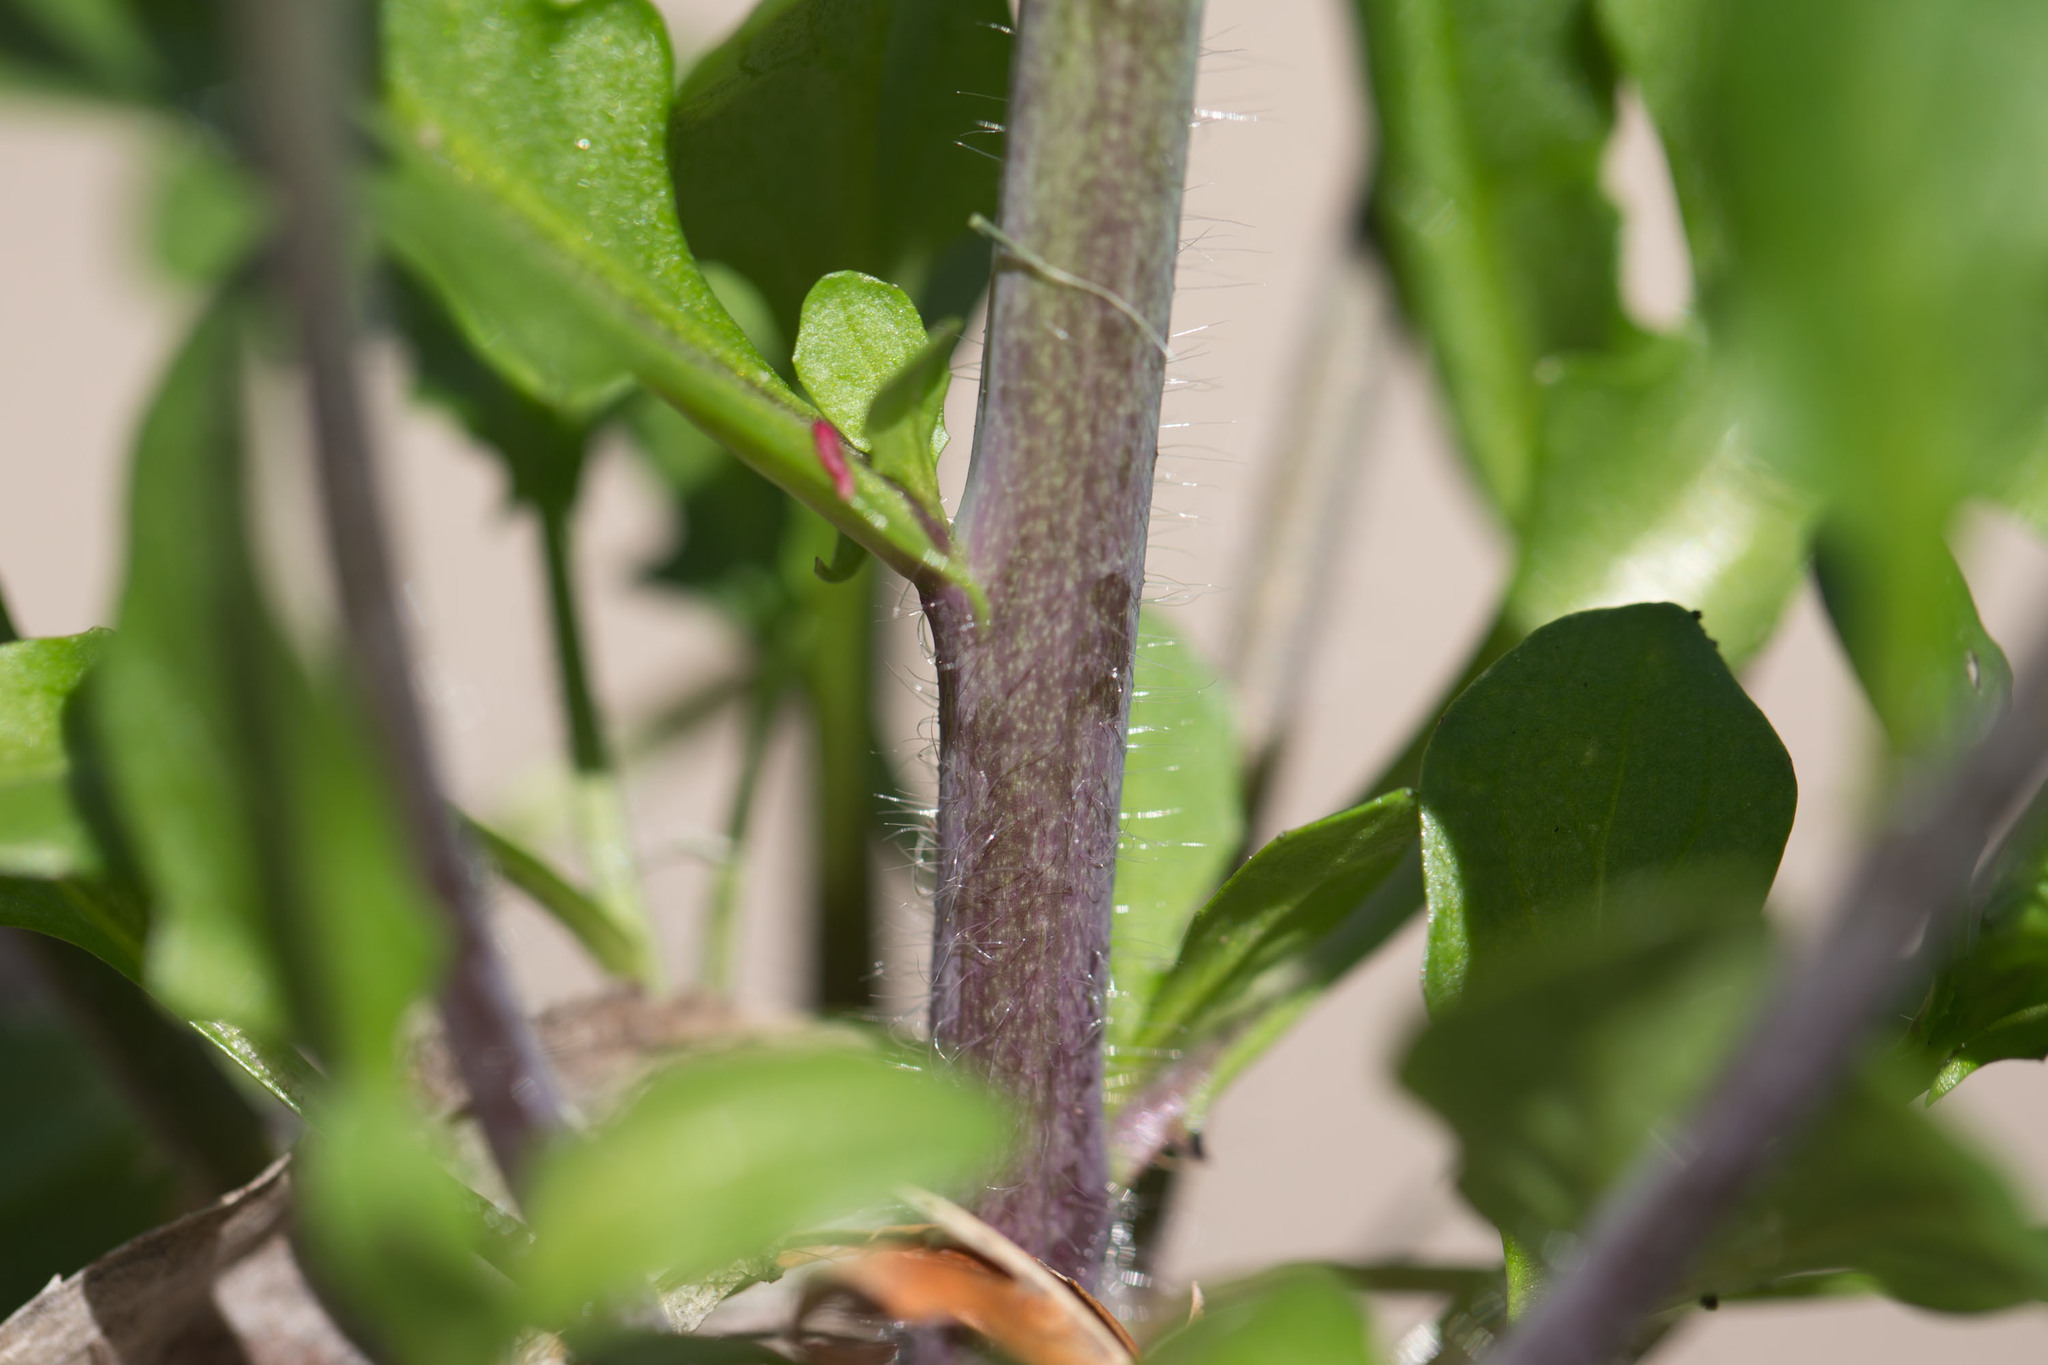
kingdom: Plantae
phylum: Tracheophyta
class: Magnoliopsida
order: Brassicales
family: Brassicaceae
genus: Mummenhoffia
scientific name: Mummenhoffia alliacea
